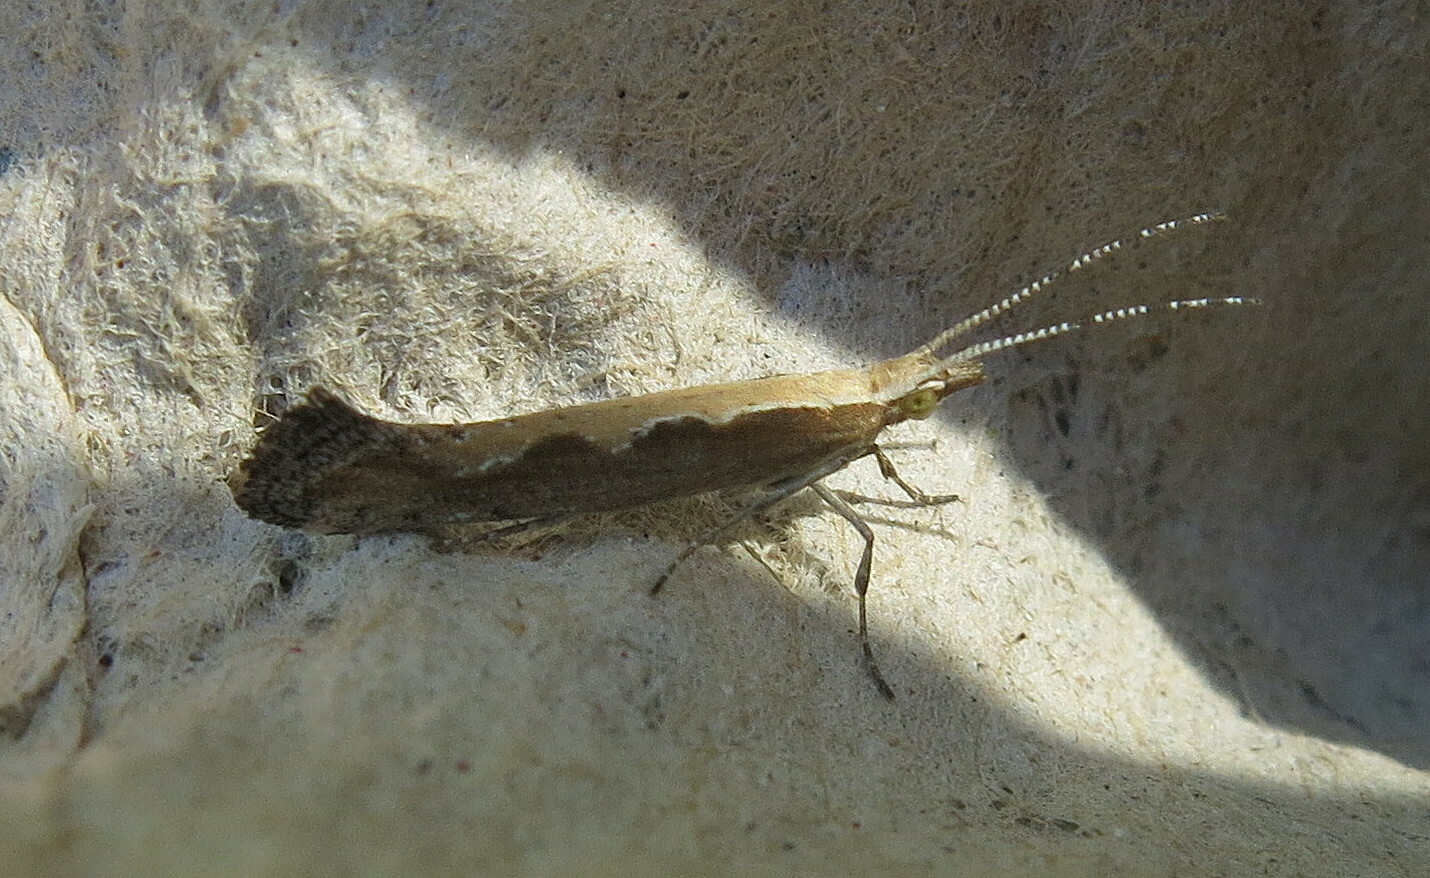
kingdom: Animalia
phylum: Arthropoda
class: Insecta
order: Lepidoptera
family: Plutellidae
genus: Plutella
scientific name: Plutella xylostella
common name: Diamond-back moth
